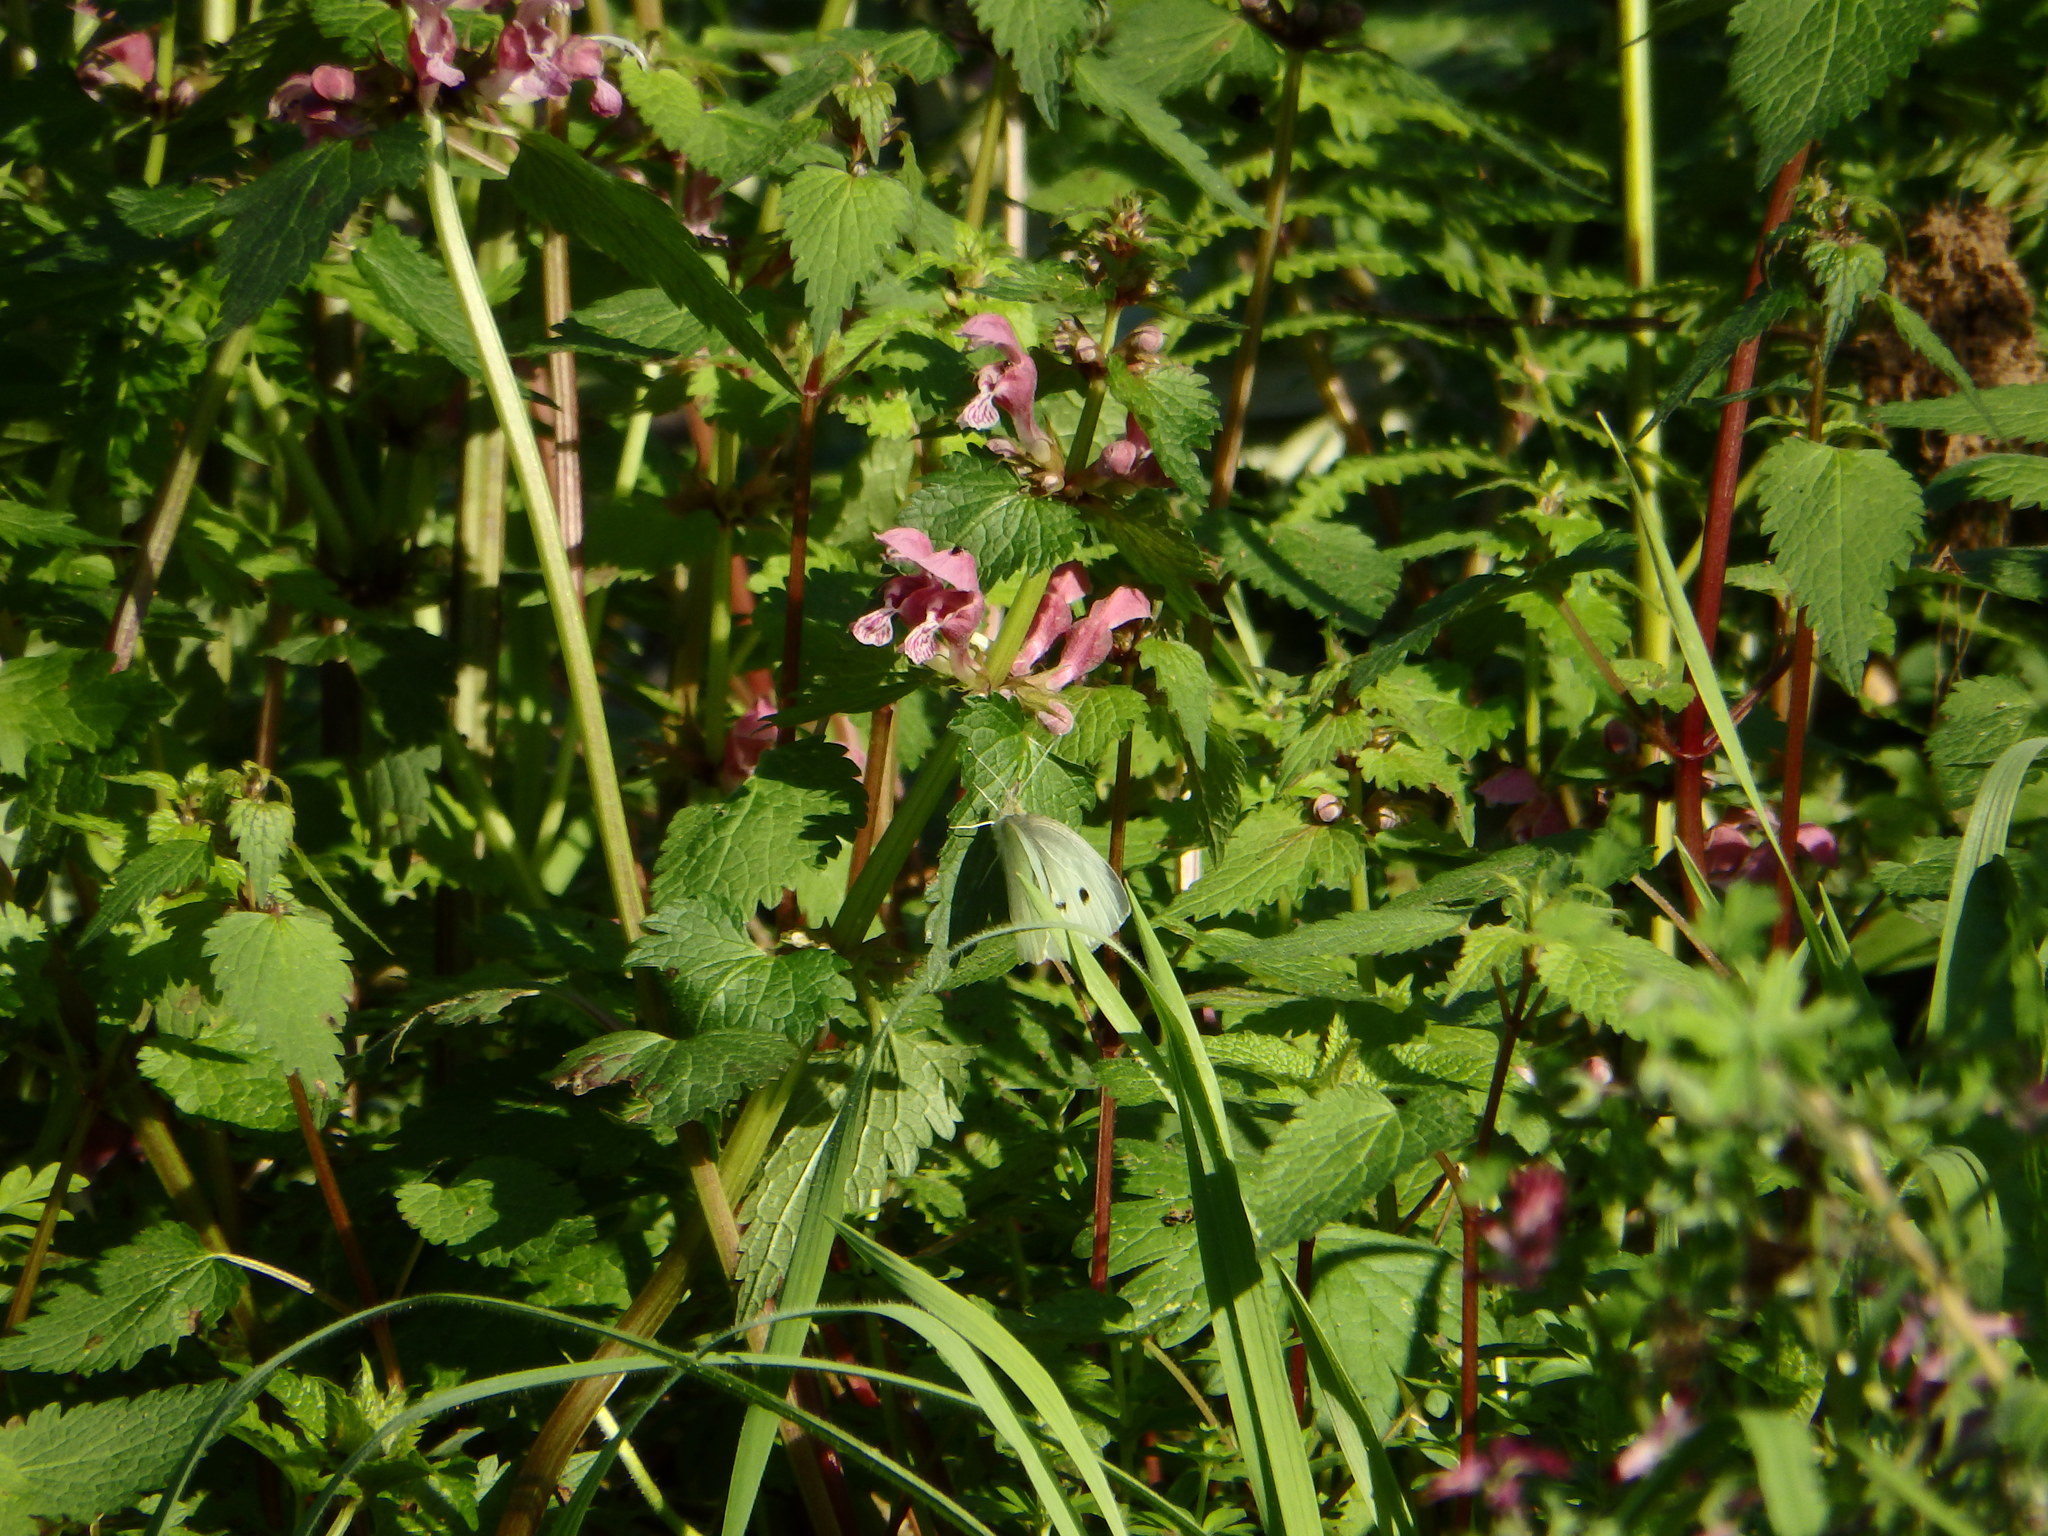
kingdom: Animalia
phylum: Arthropoda
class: Insecta
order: Lepidoptera
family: Pieridae
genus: Pieris
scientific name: Pieris rapae
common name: Small white
